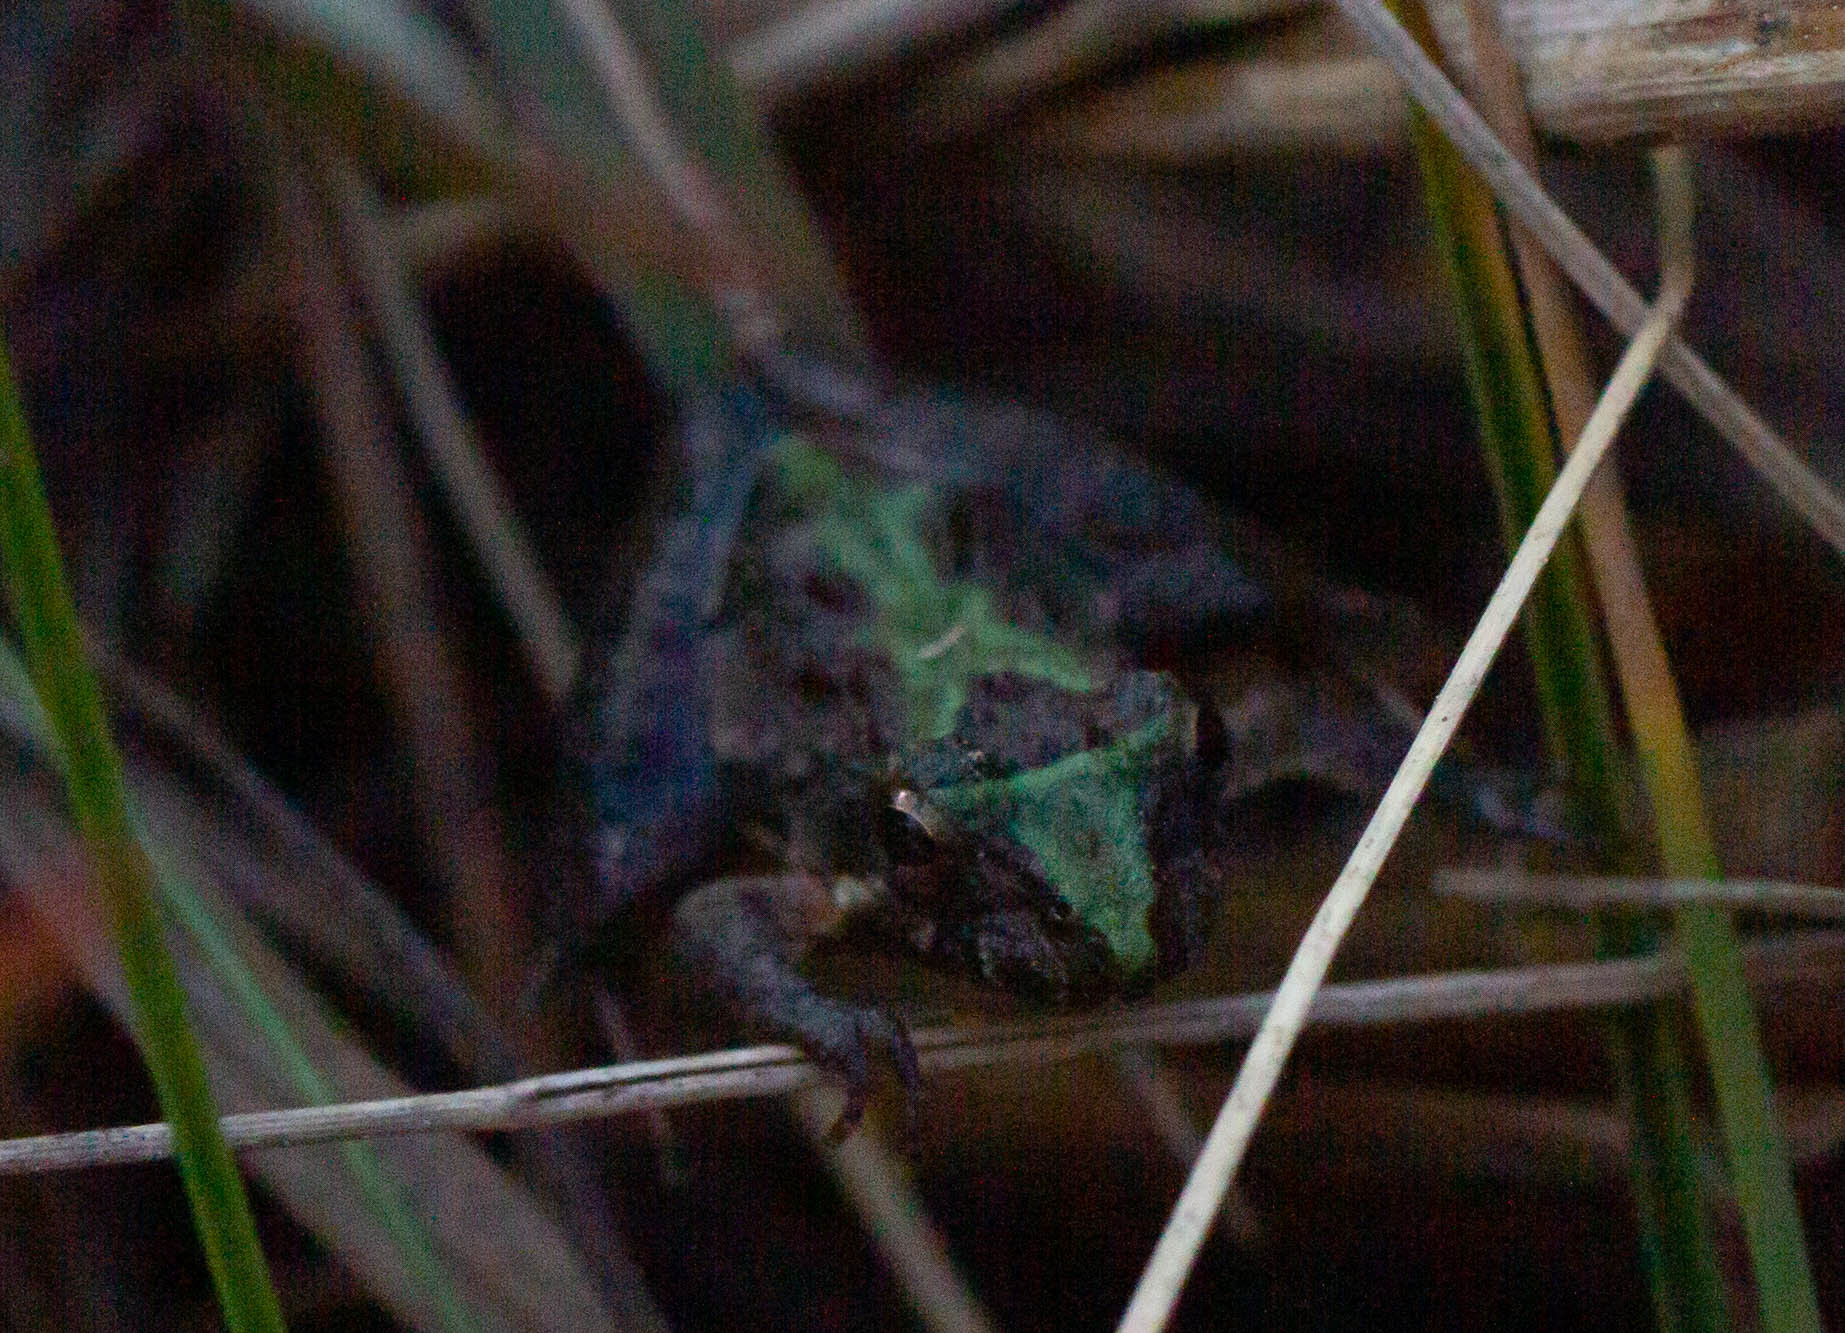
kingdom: Animalia
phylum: Chordata
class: Amphibia
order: Anura
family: Hylidae
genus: Acris
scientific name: Acris gryllus
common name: Southern cricket frog
